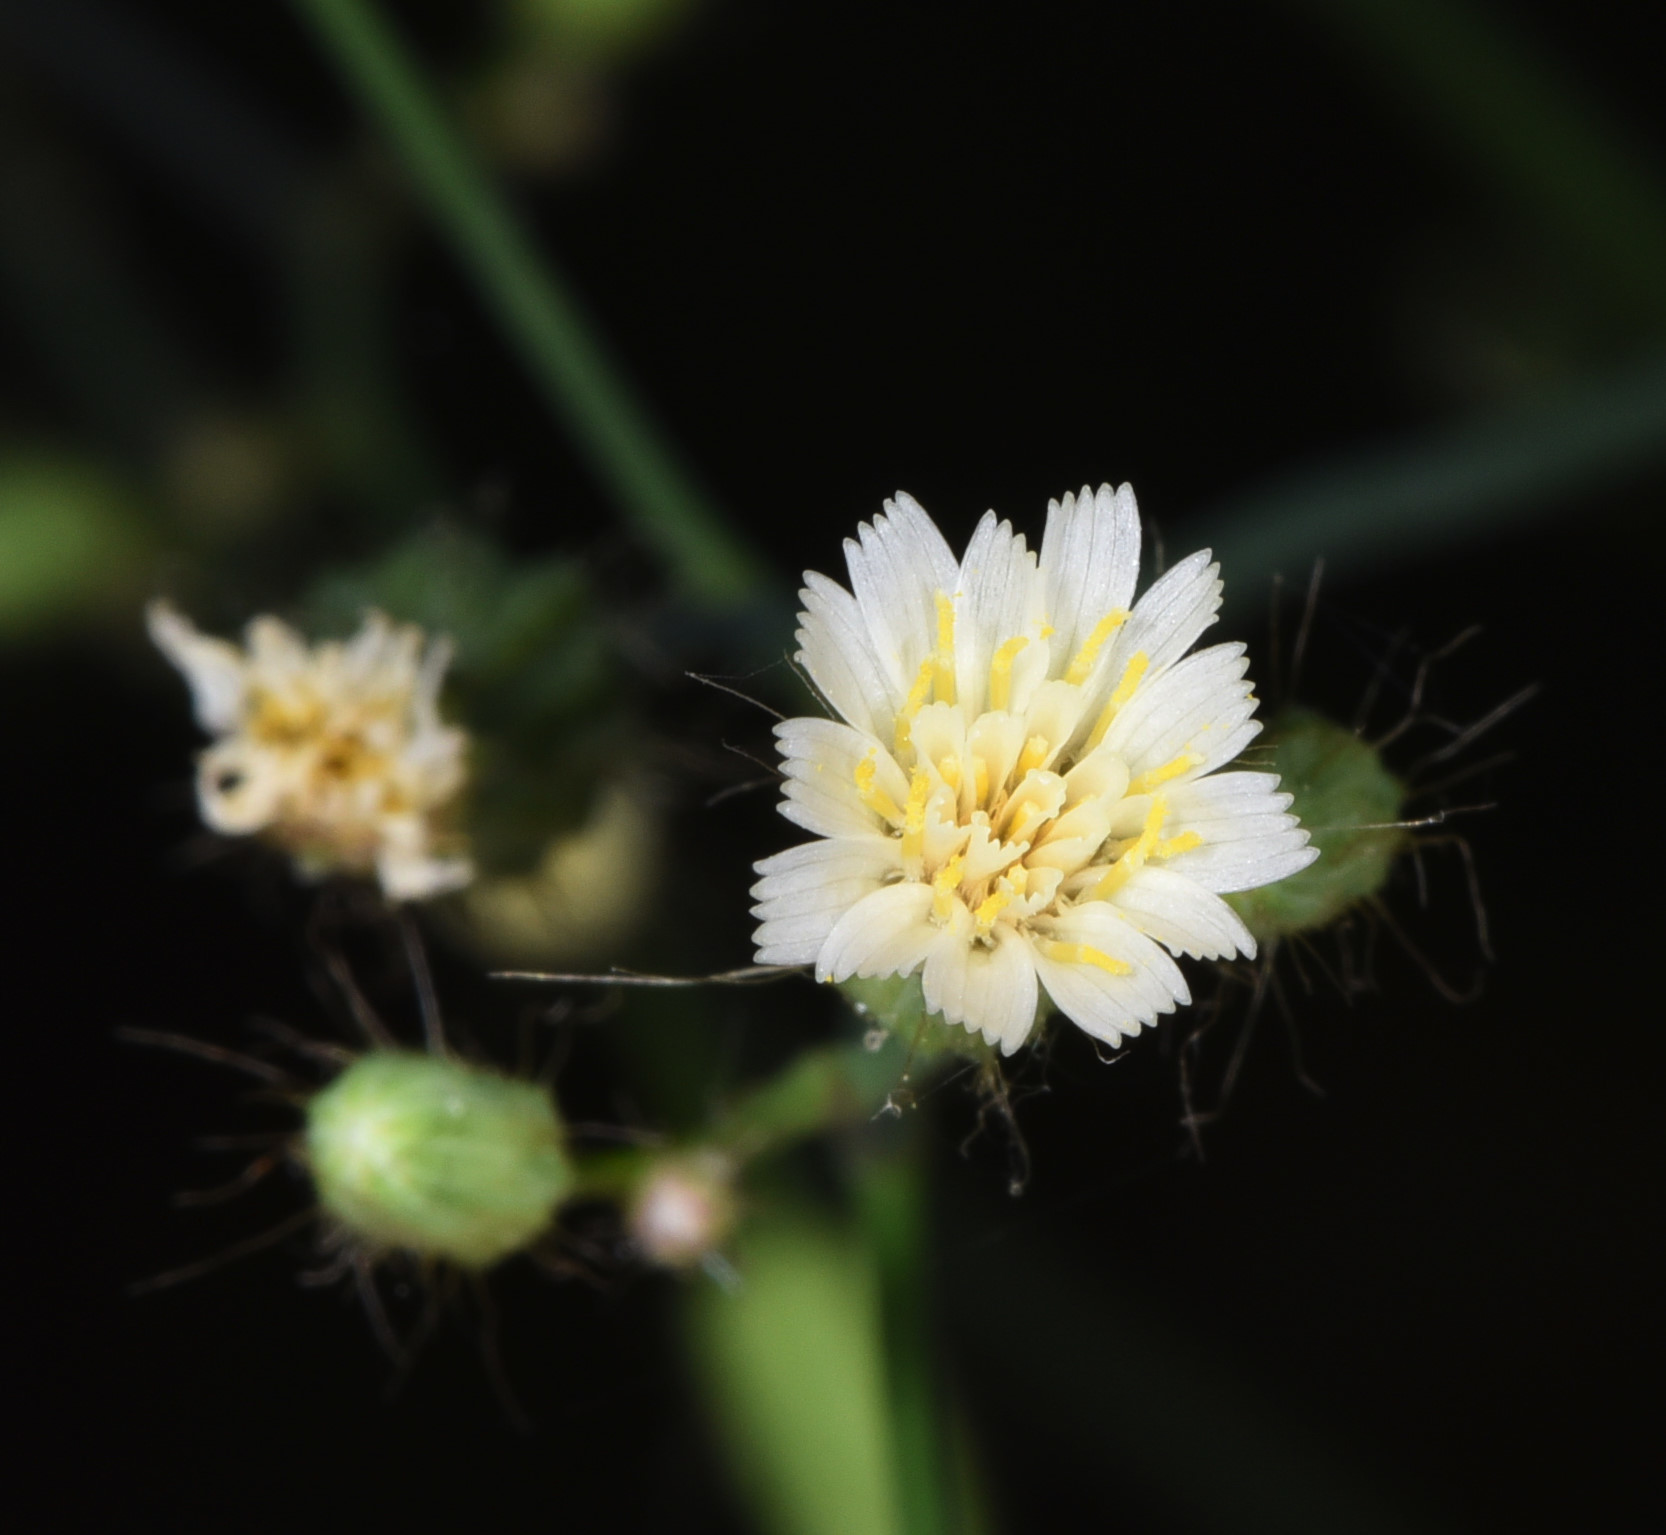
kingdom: Plantae
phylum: Tracheophyta
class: Magnoliopsida
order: Asterales
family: Asteraceae
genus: Hieracium
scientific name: Hieracium albiflorum
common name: White hawkweed
